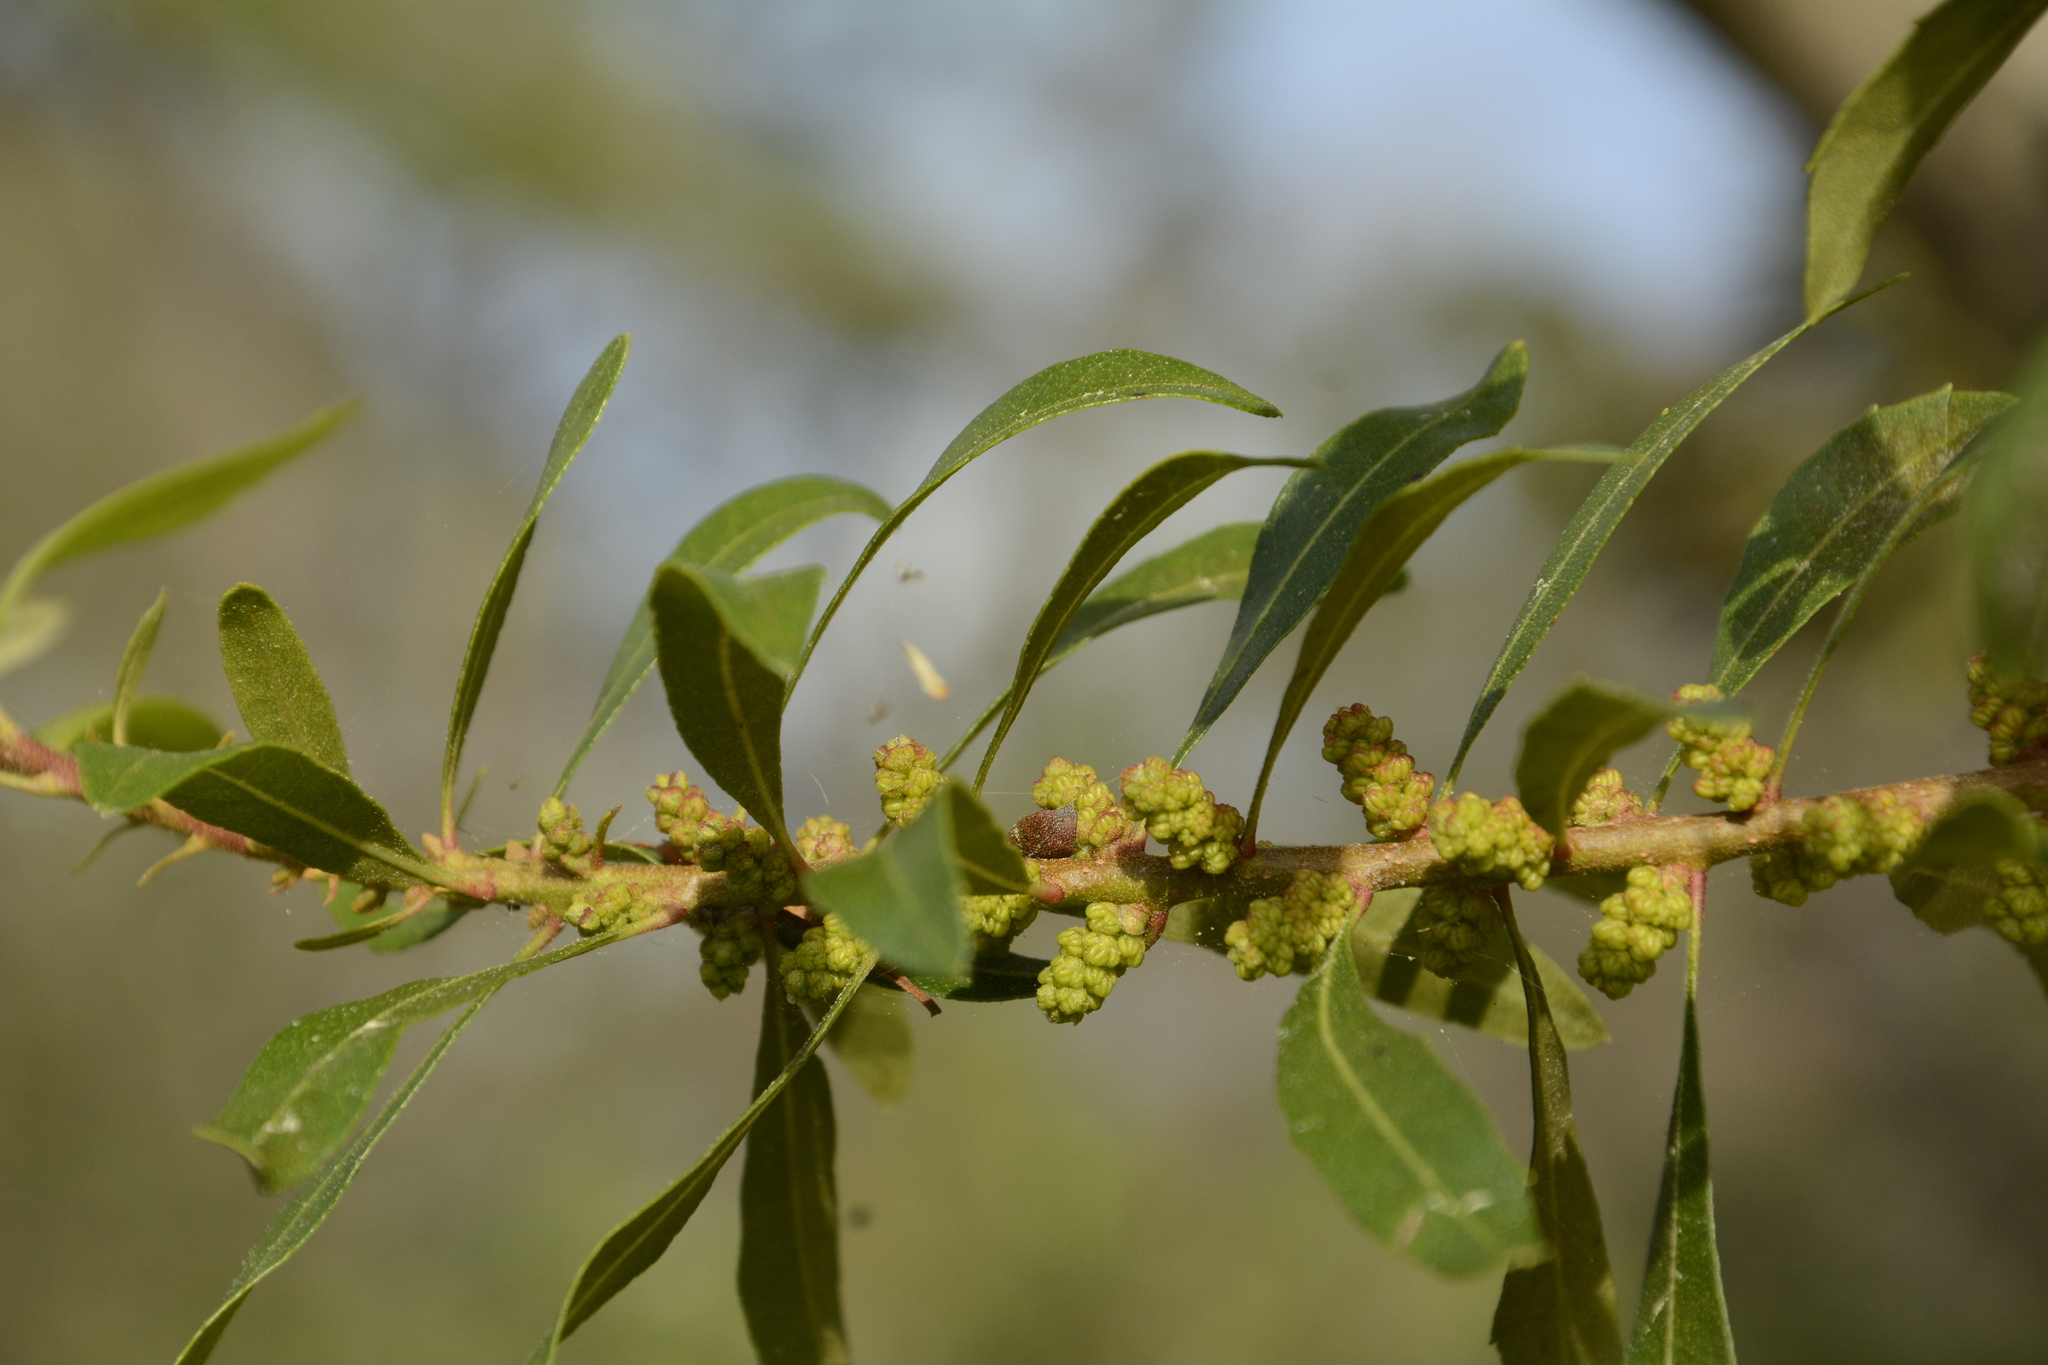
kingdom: Plantae
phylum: Tracheophyta
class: Magnoliopsida
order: Fagales
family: Myricaceae
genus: Morella
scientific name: Morella cerifera
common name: Wax myrtle
